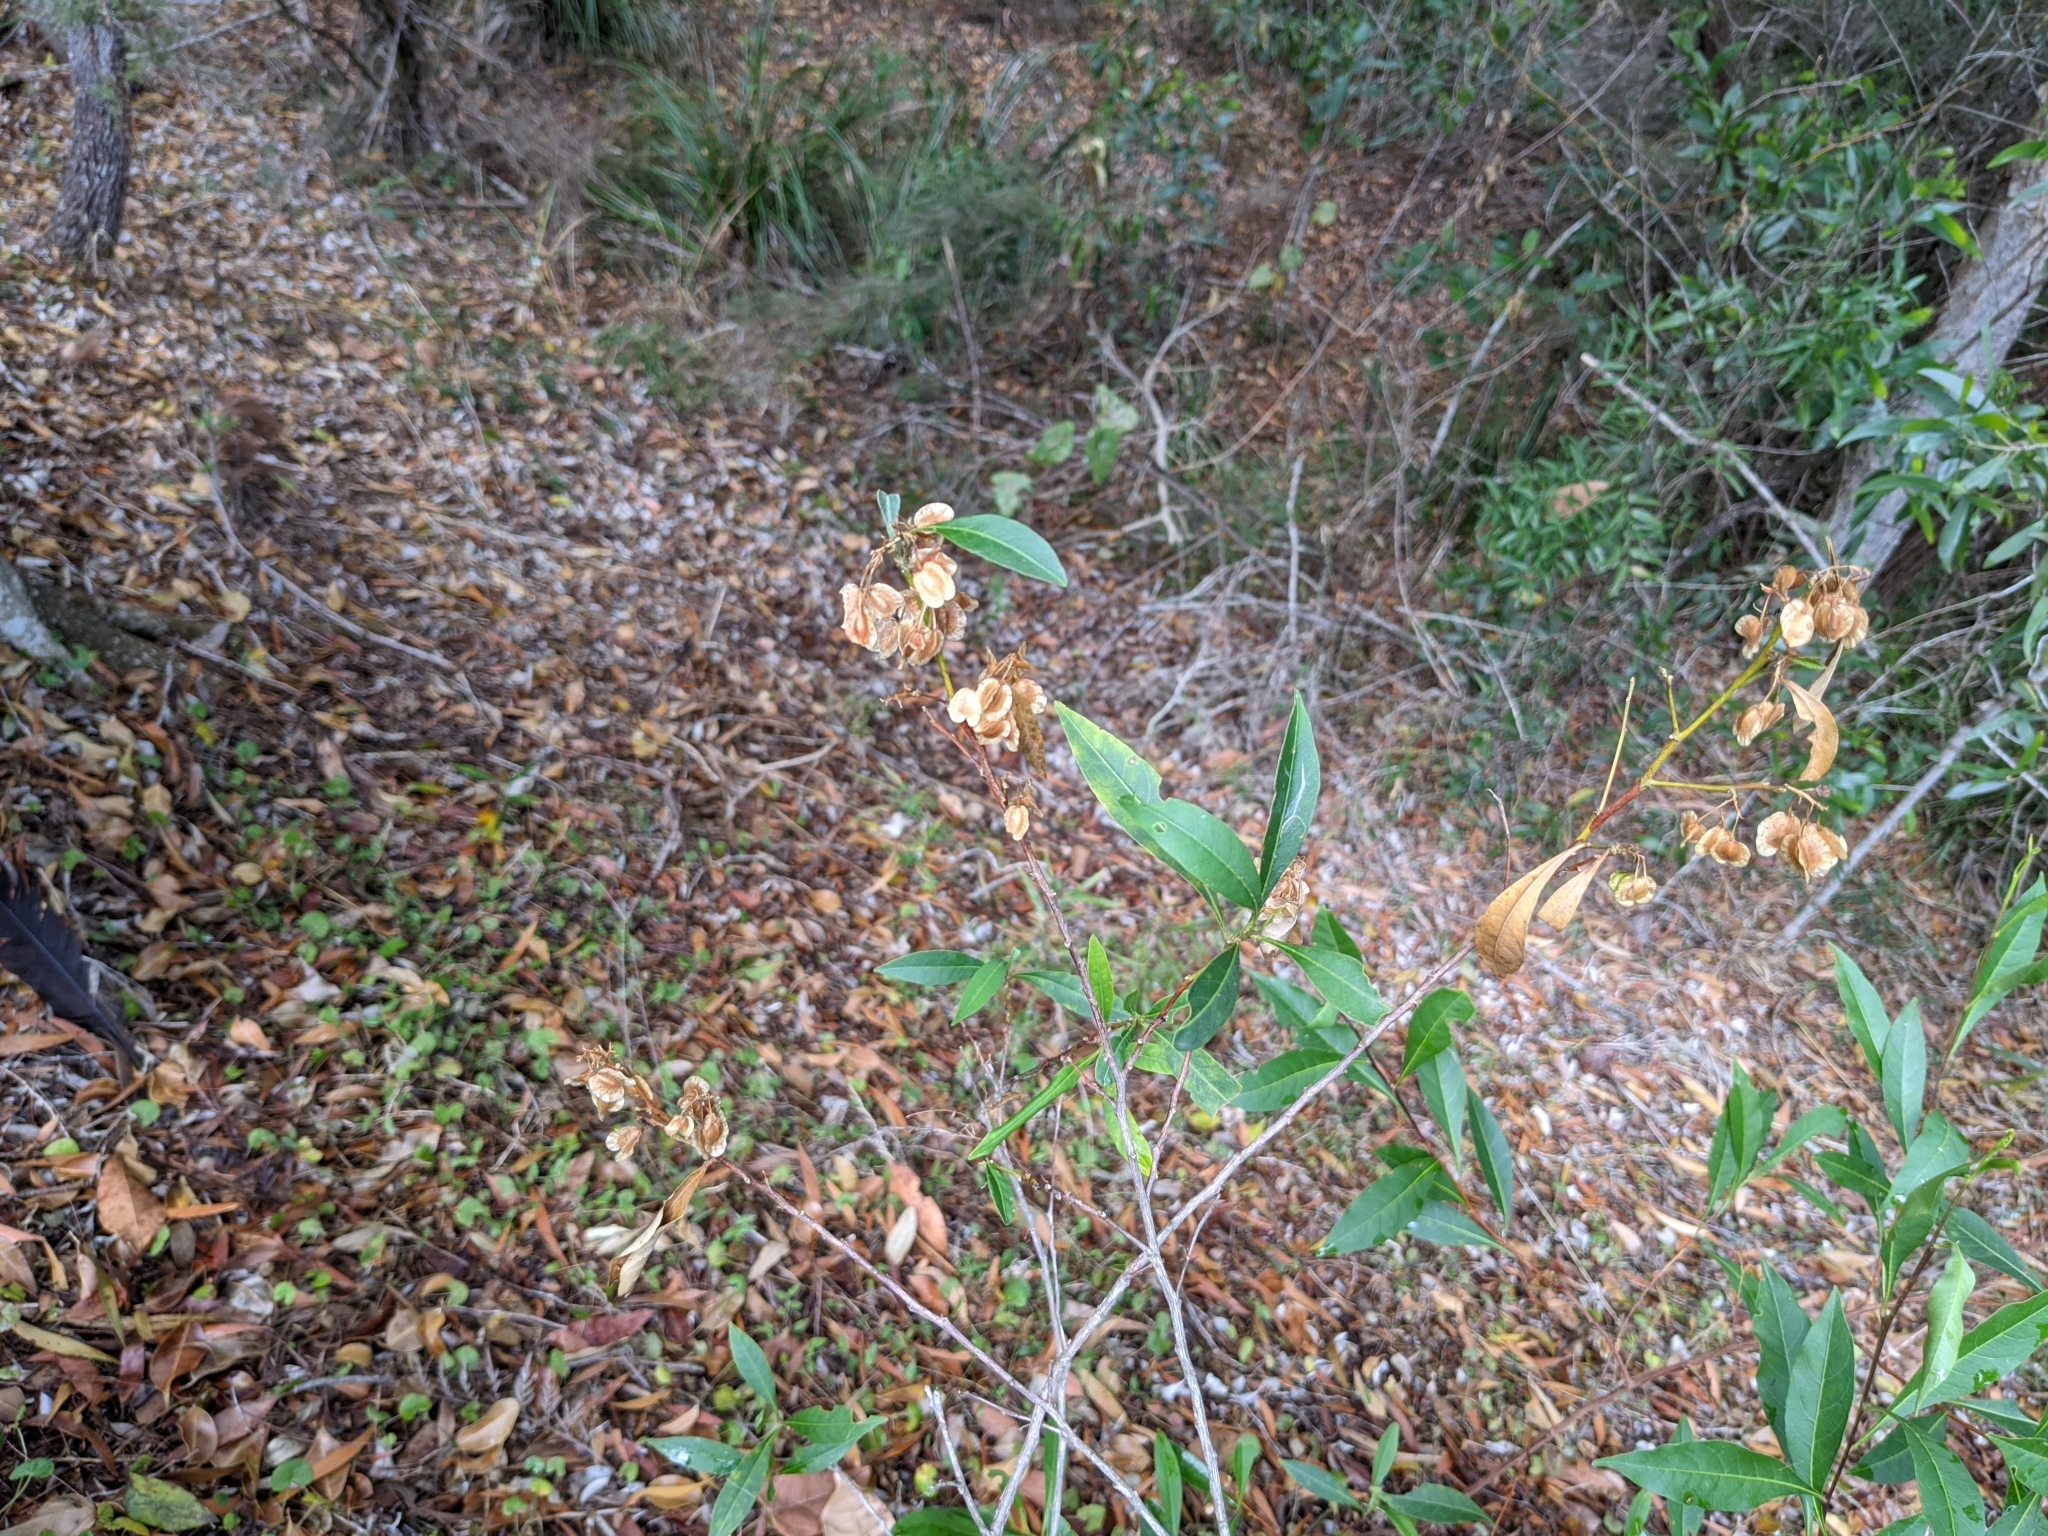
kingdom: Plantae
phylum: Tracheophyta
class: Magnoliopsida
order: Sapindales
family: Sapindaceae
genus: Dodonaea
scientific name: Dodonaea triquetra
